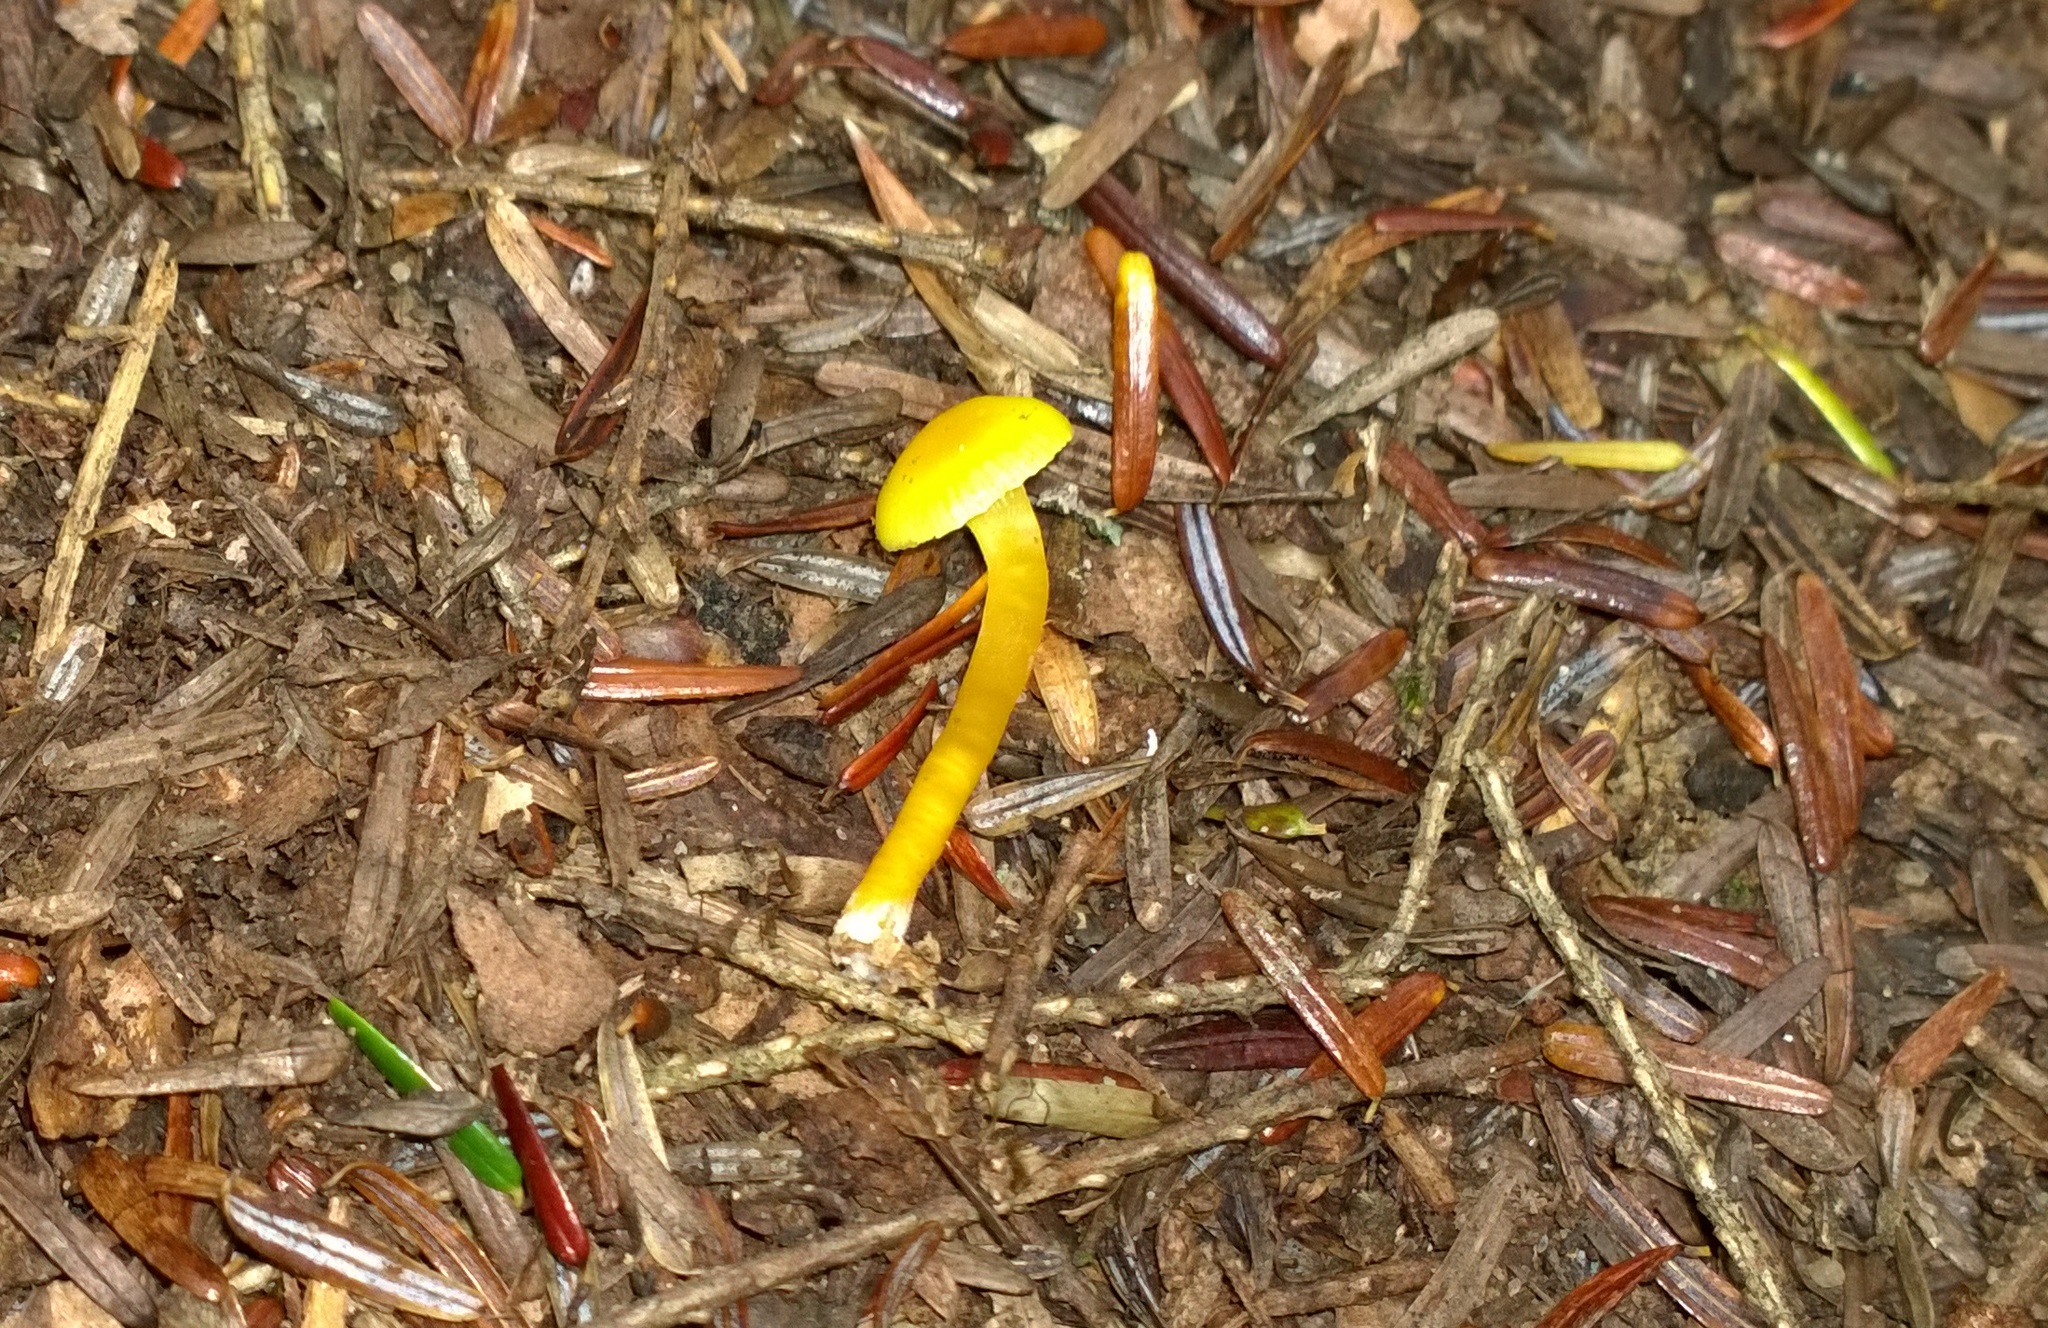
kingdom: Fungi
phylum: Basidiomycota
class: Agaricomycetes
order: Agaricales
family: Hygrophoraceae
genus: Hygrocybe
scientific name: Hygrocybe parvula
